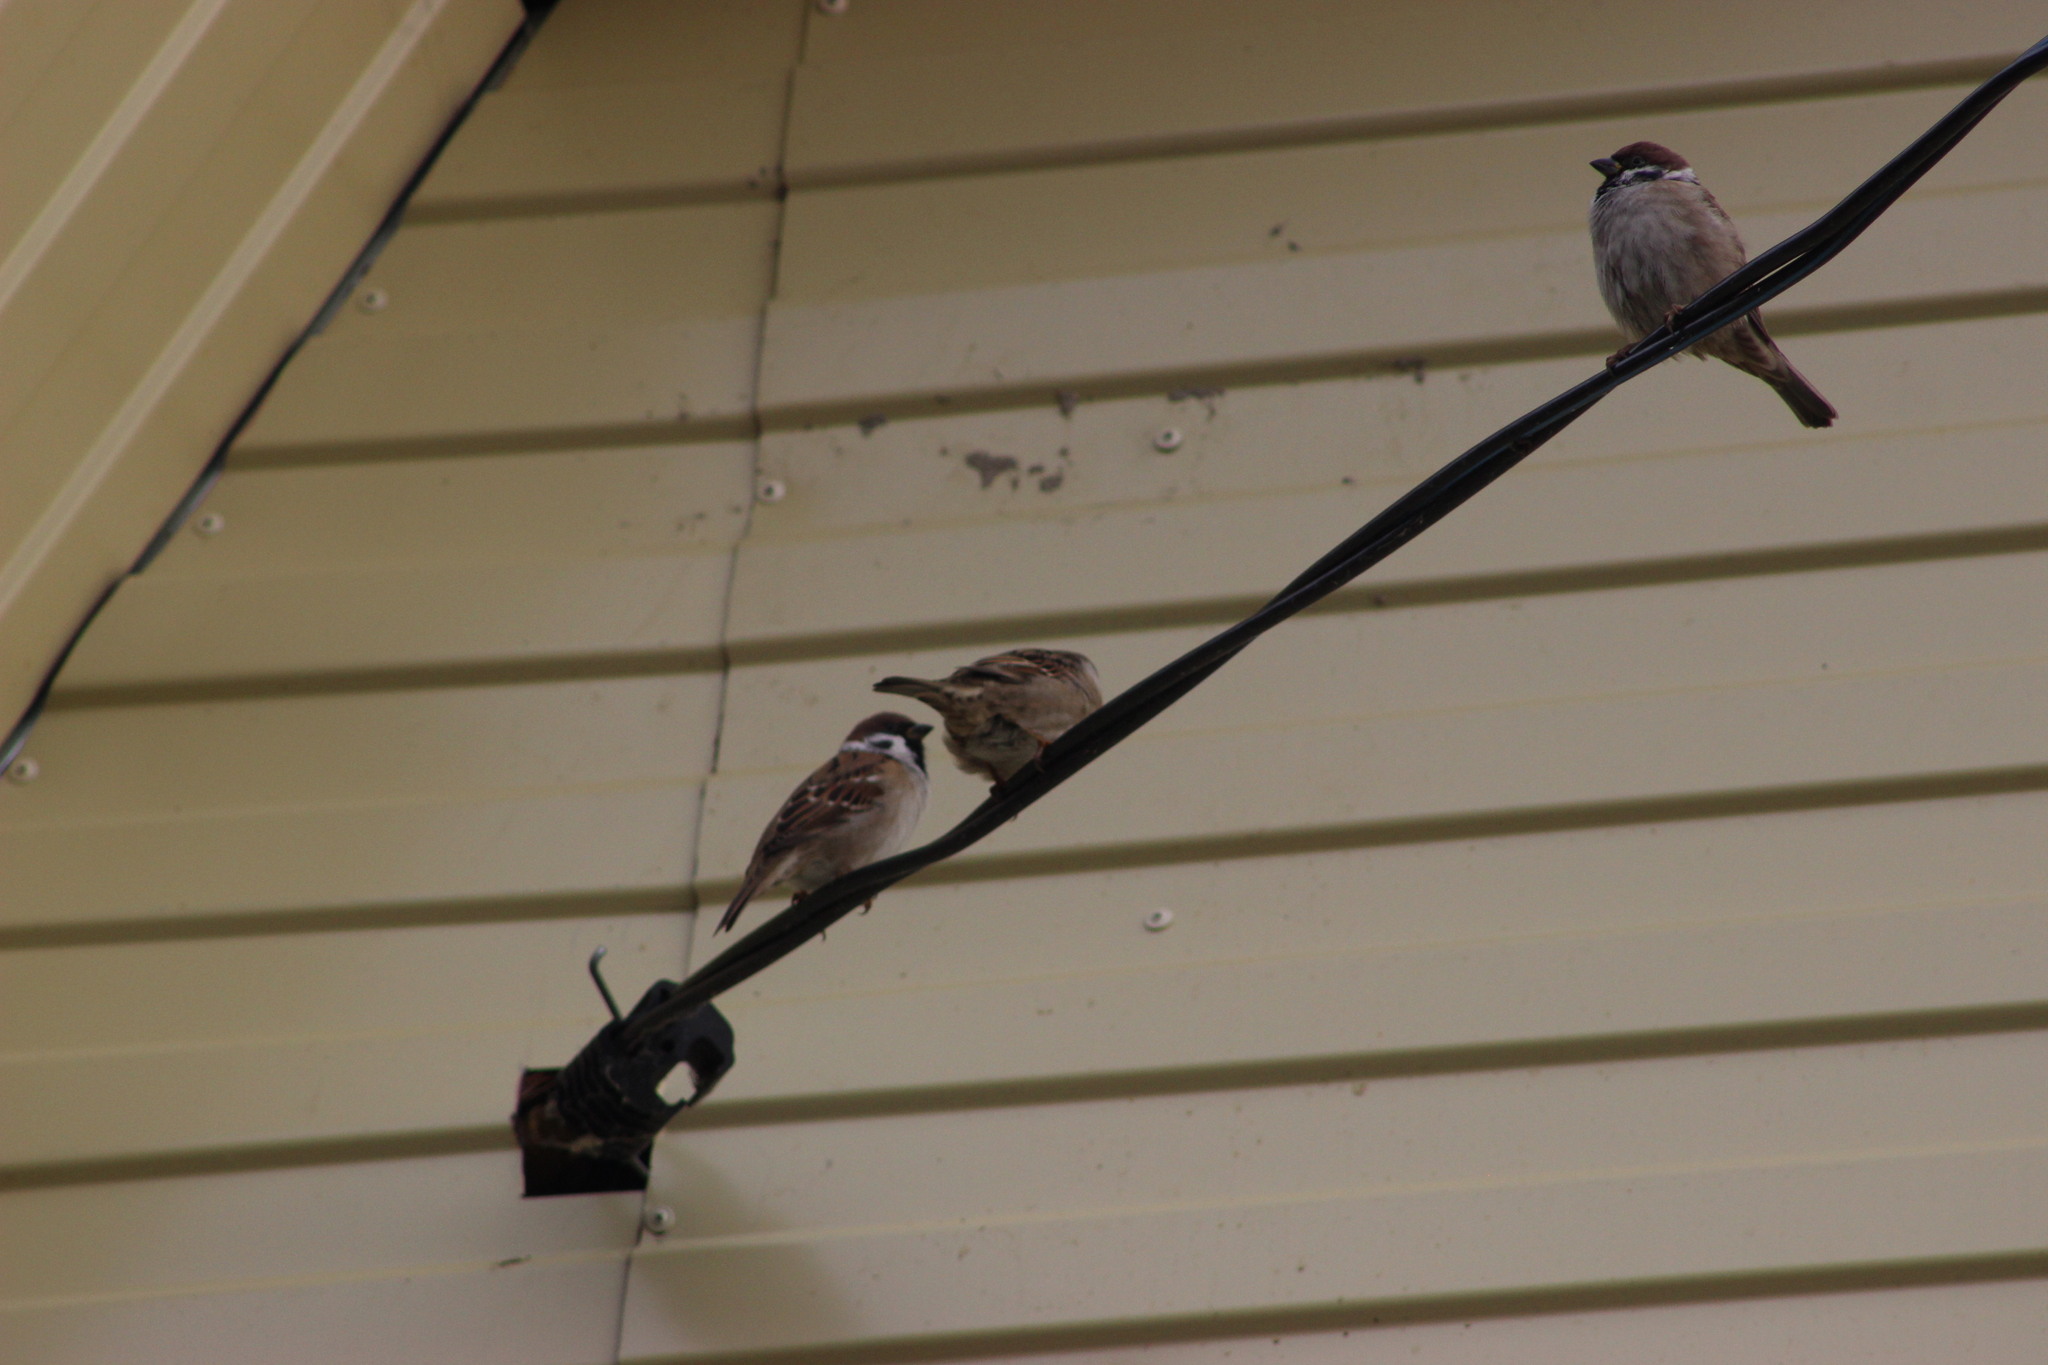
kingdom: Animalia
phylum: Chordata
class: Aves
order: Passeriformes
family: Passeridae
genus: Passer
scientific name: Passer montanus
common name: Eurasian tree sparrow
